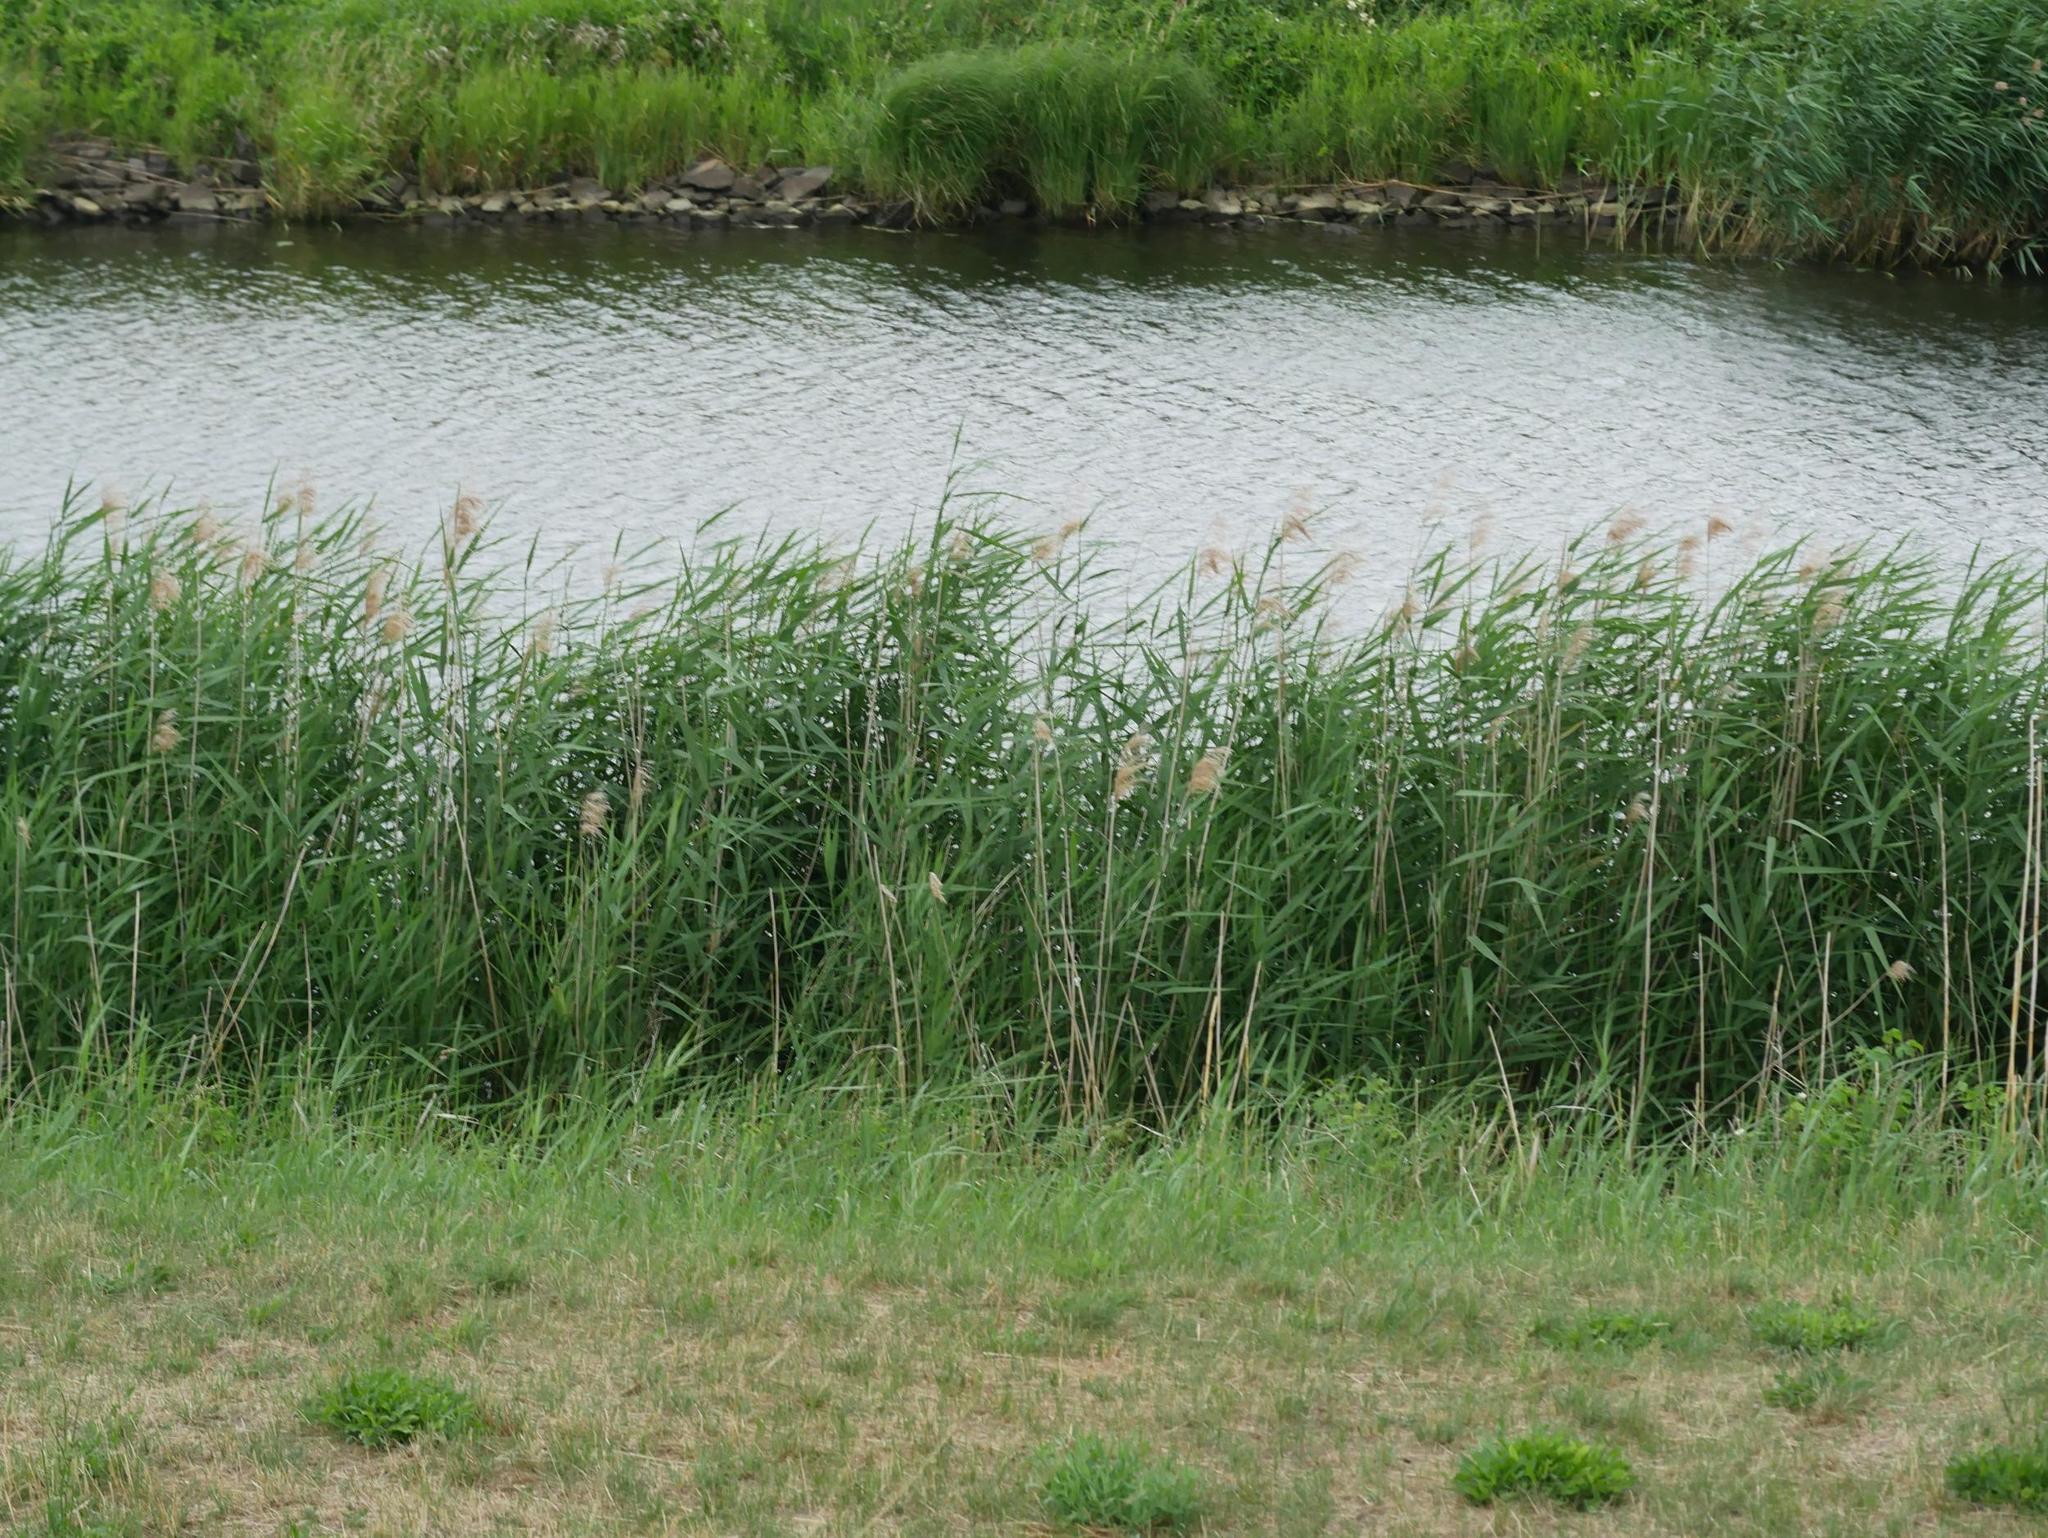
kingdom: Plantae
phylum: Tracheophyta
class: Liliopsida
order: Poales
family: Poaceae
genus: Phragmites
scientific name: Phragmites australis
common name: Common reed
